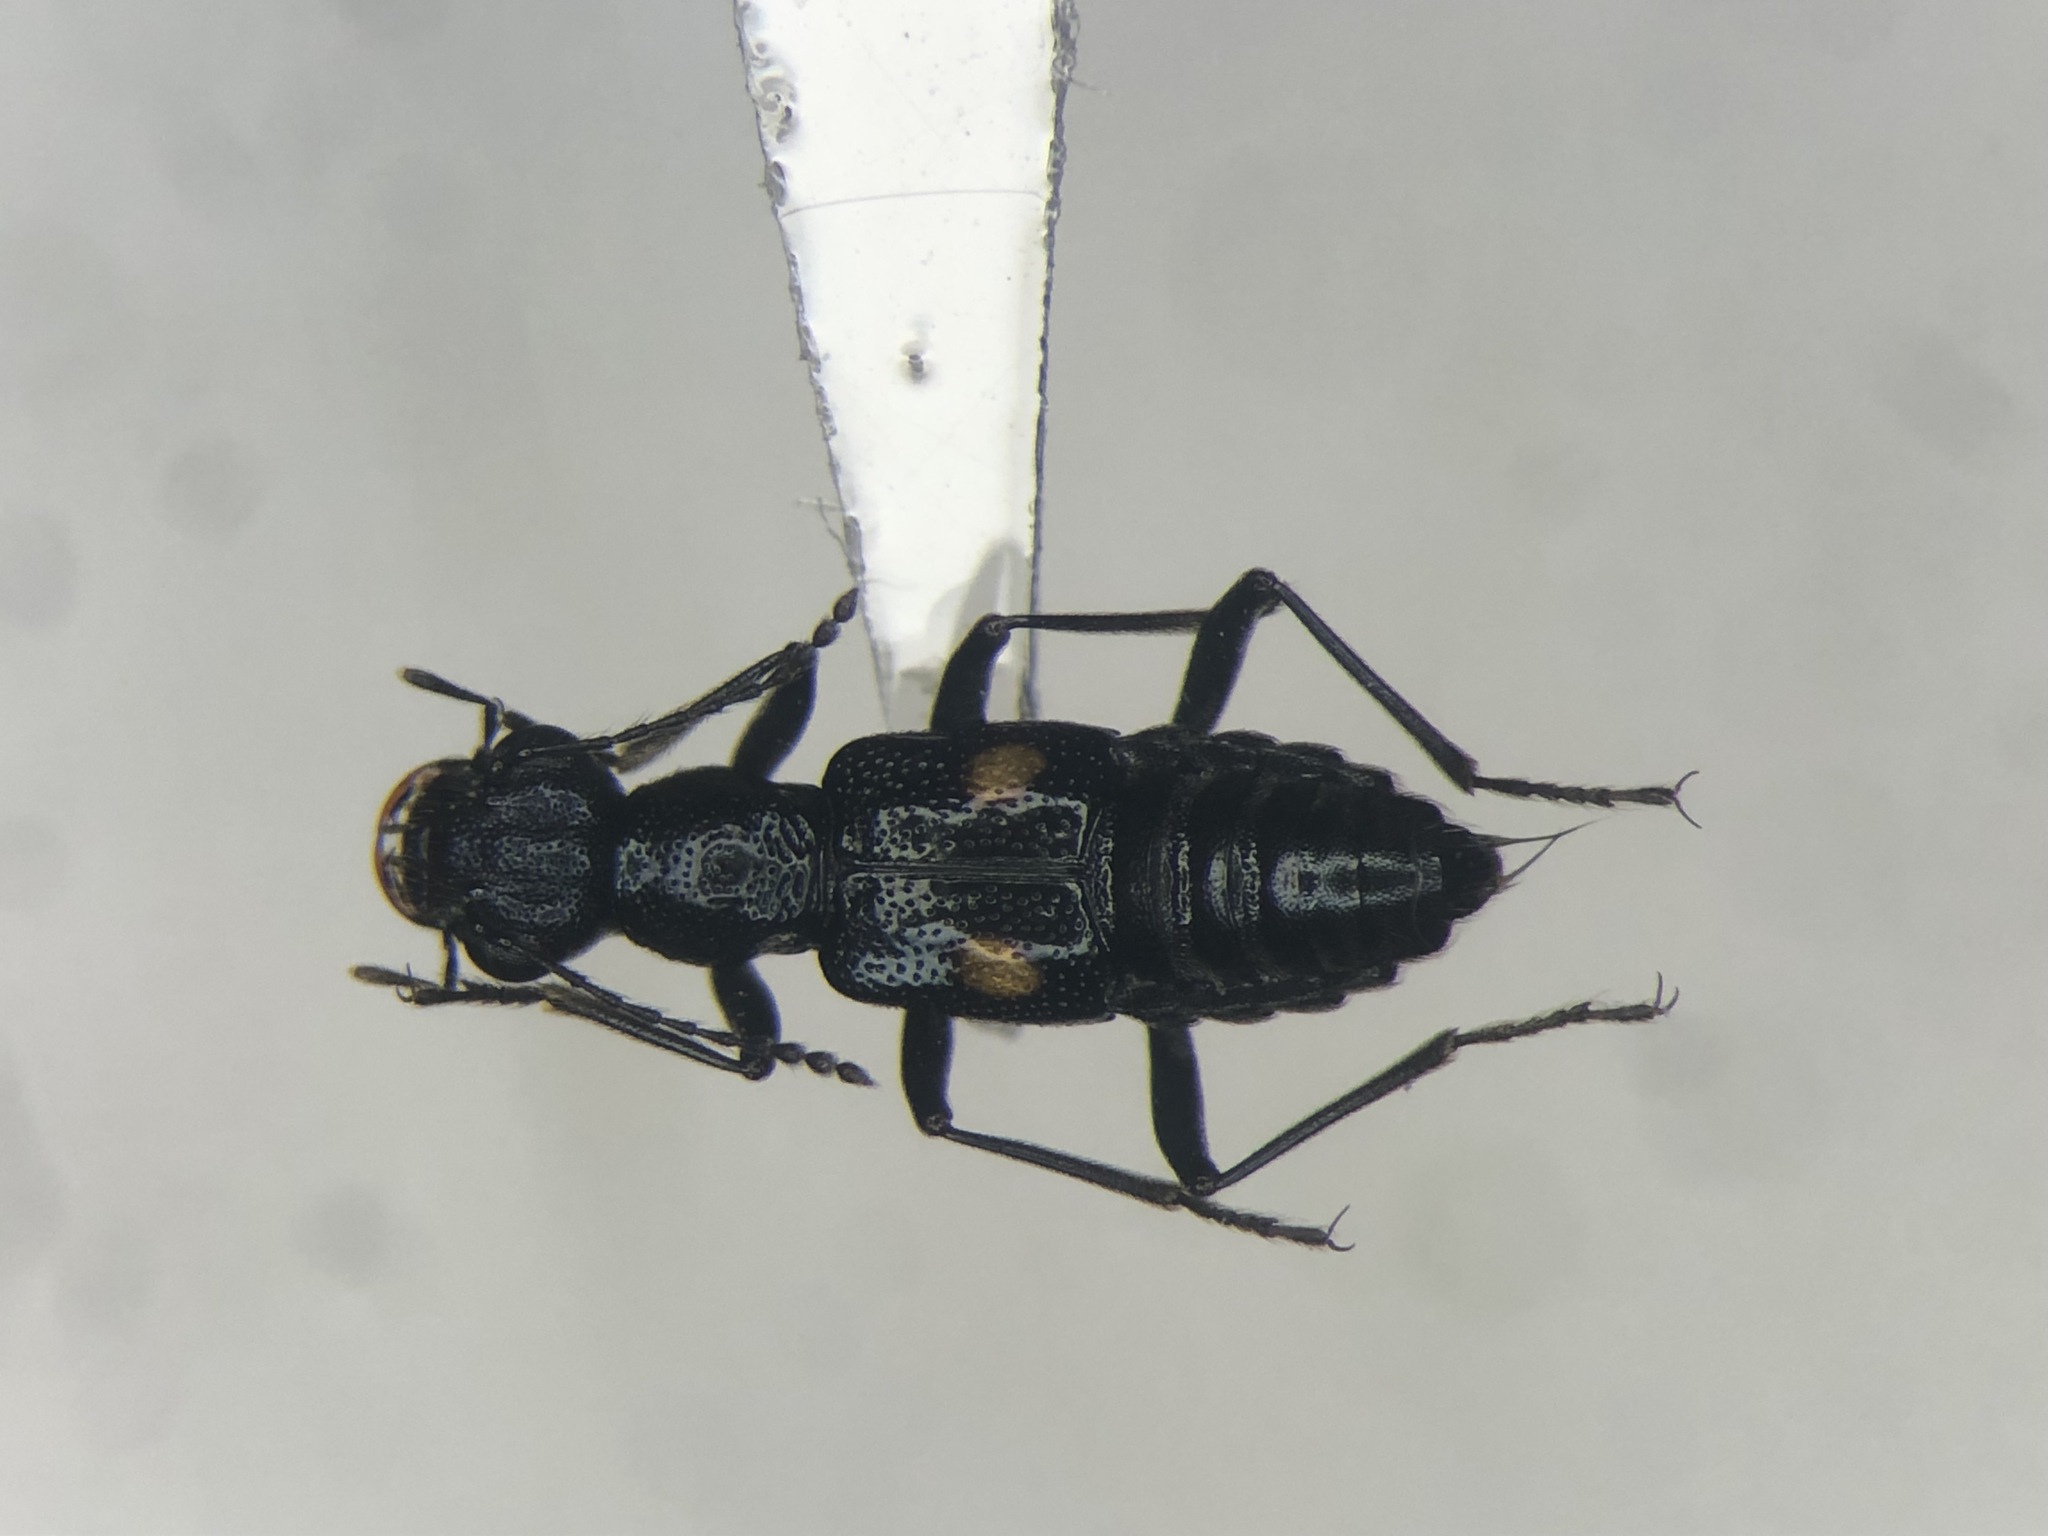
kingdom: Animalia
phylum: Arthropoda
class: Insecta
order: Coleoptera
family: Staphylinidae
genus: Dianous
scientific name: Dianous nitidulus
